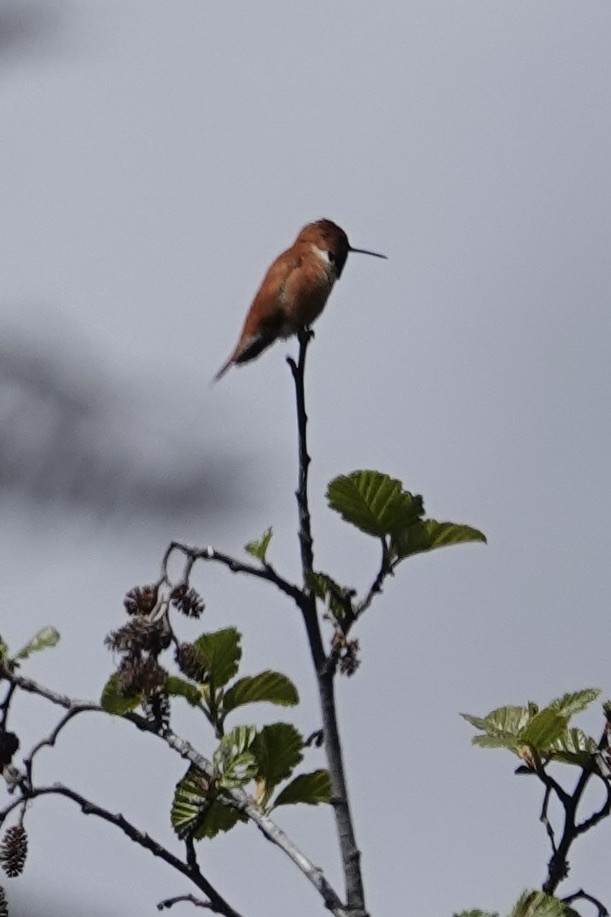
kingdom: Animalia
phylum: Chordata
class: Aves
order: Apodiformes
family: Trochilidae
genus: Selasphorus
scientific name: Selasphorus rufus
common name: Rufous hummingbird
